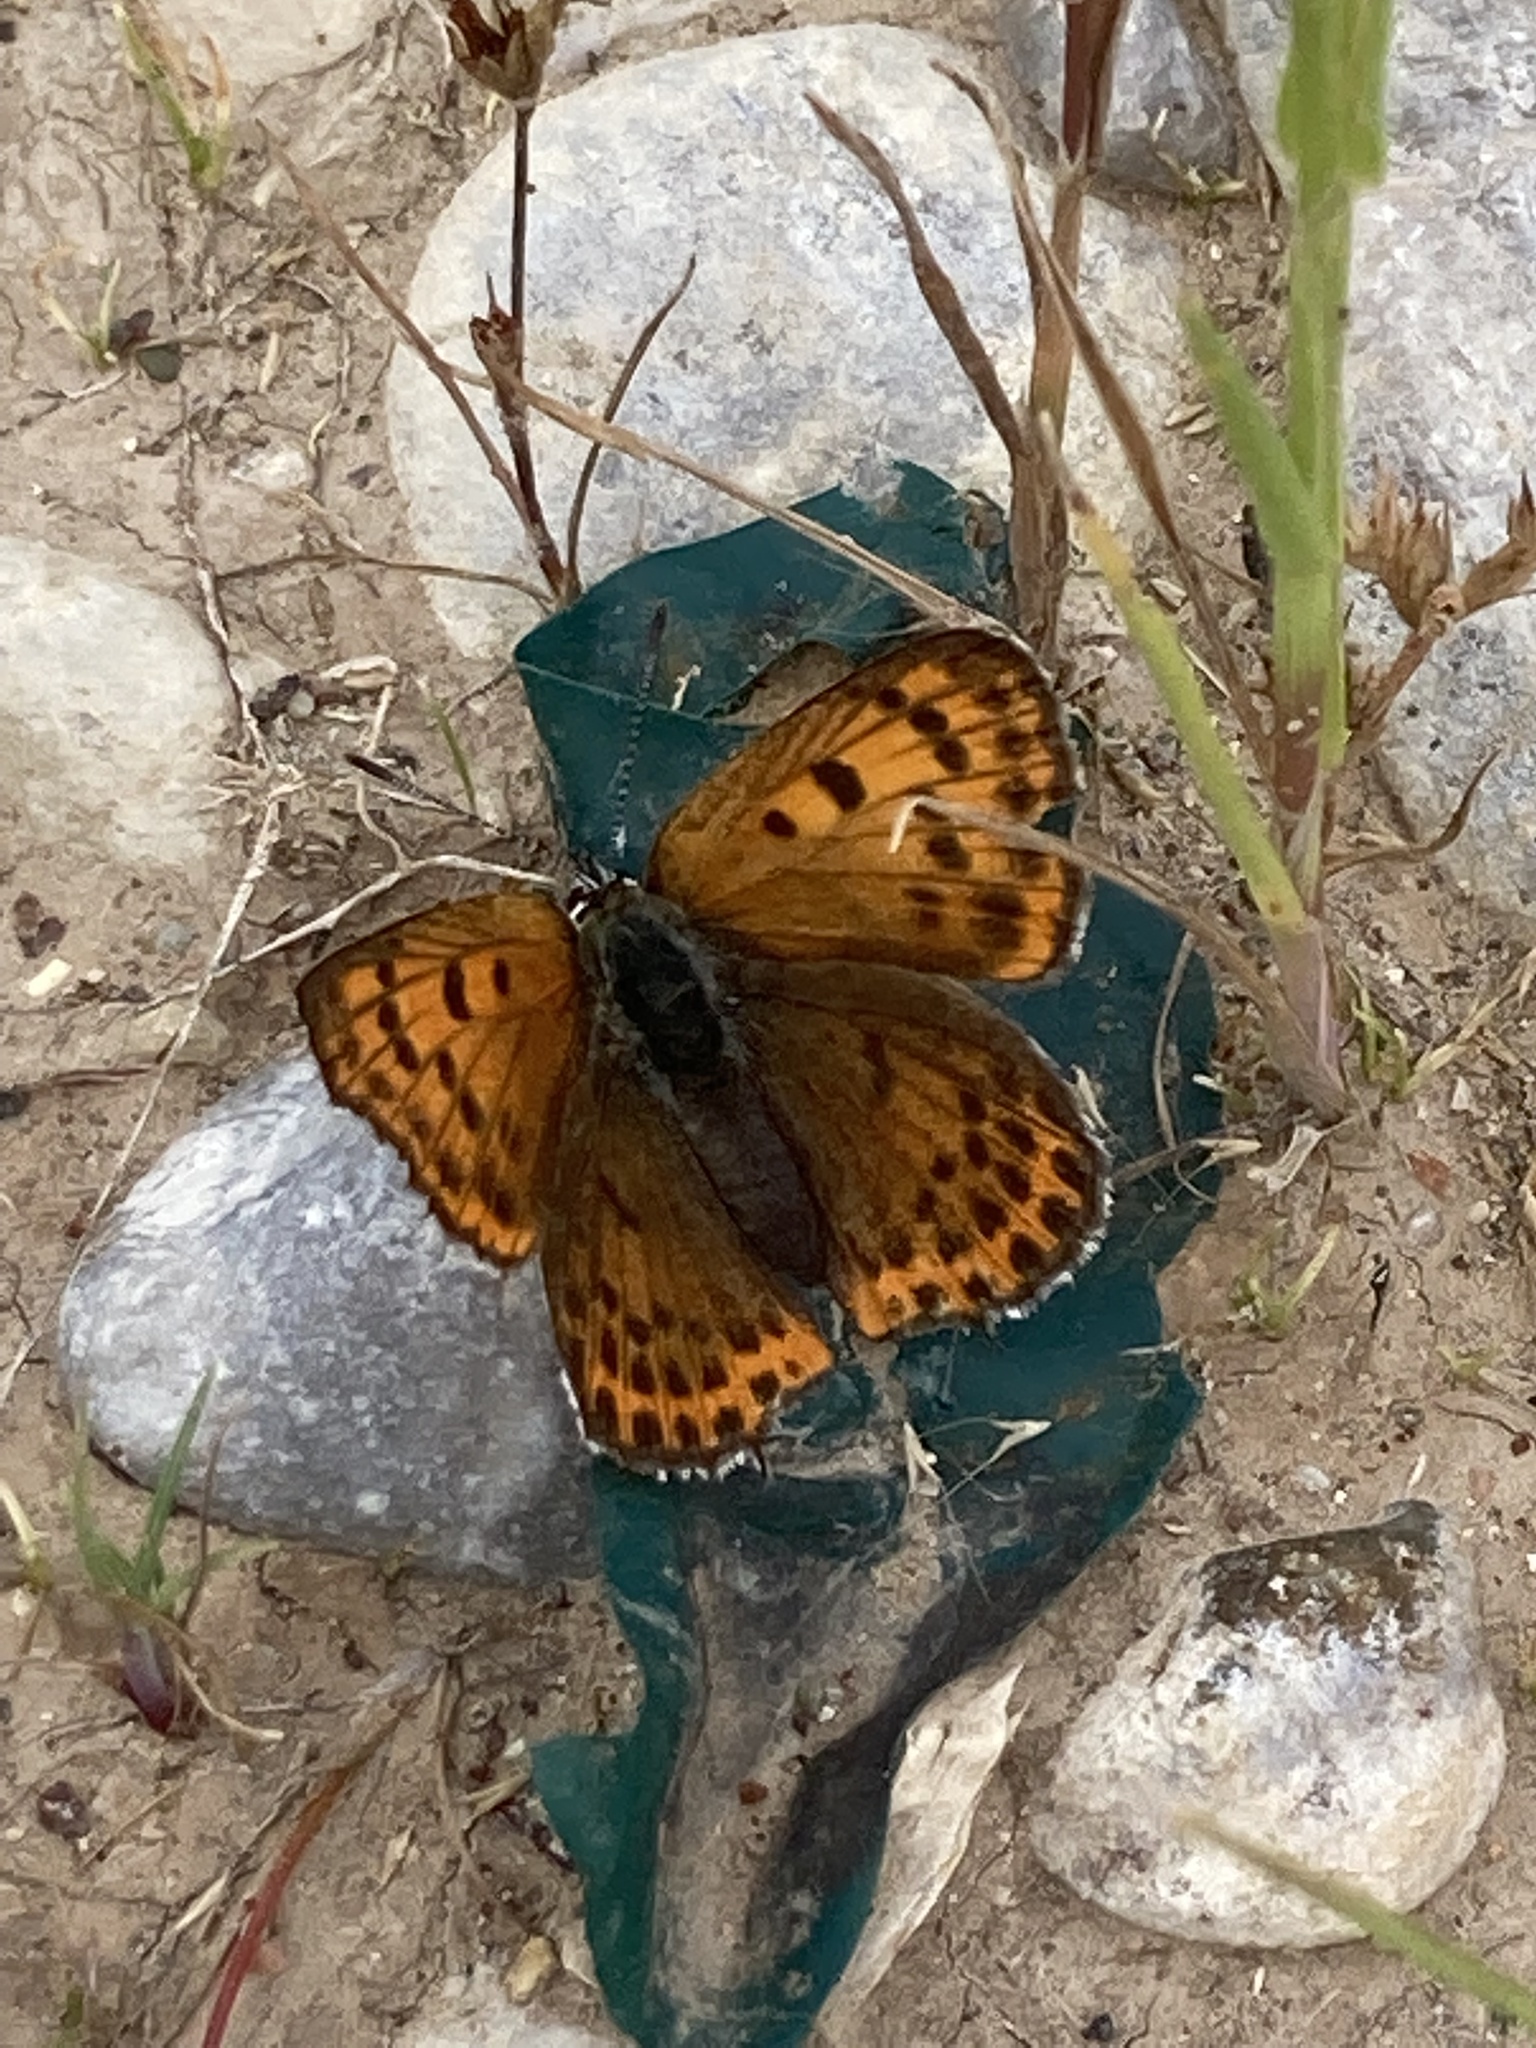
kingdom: Animalia
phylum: Arthropoda
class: Insecta
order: Lepidoptera
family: Lycaenidae
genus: Thersamonia
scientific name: Thersamonia thersamon
